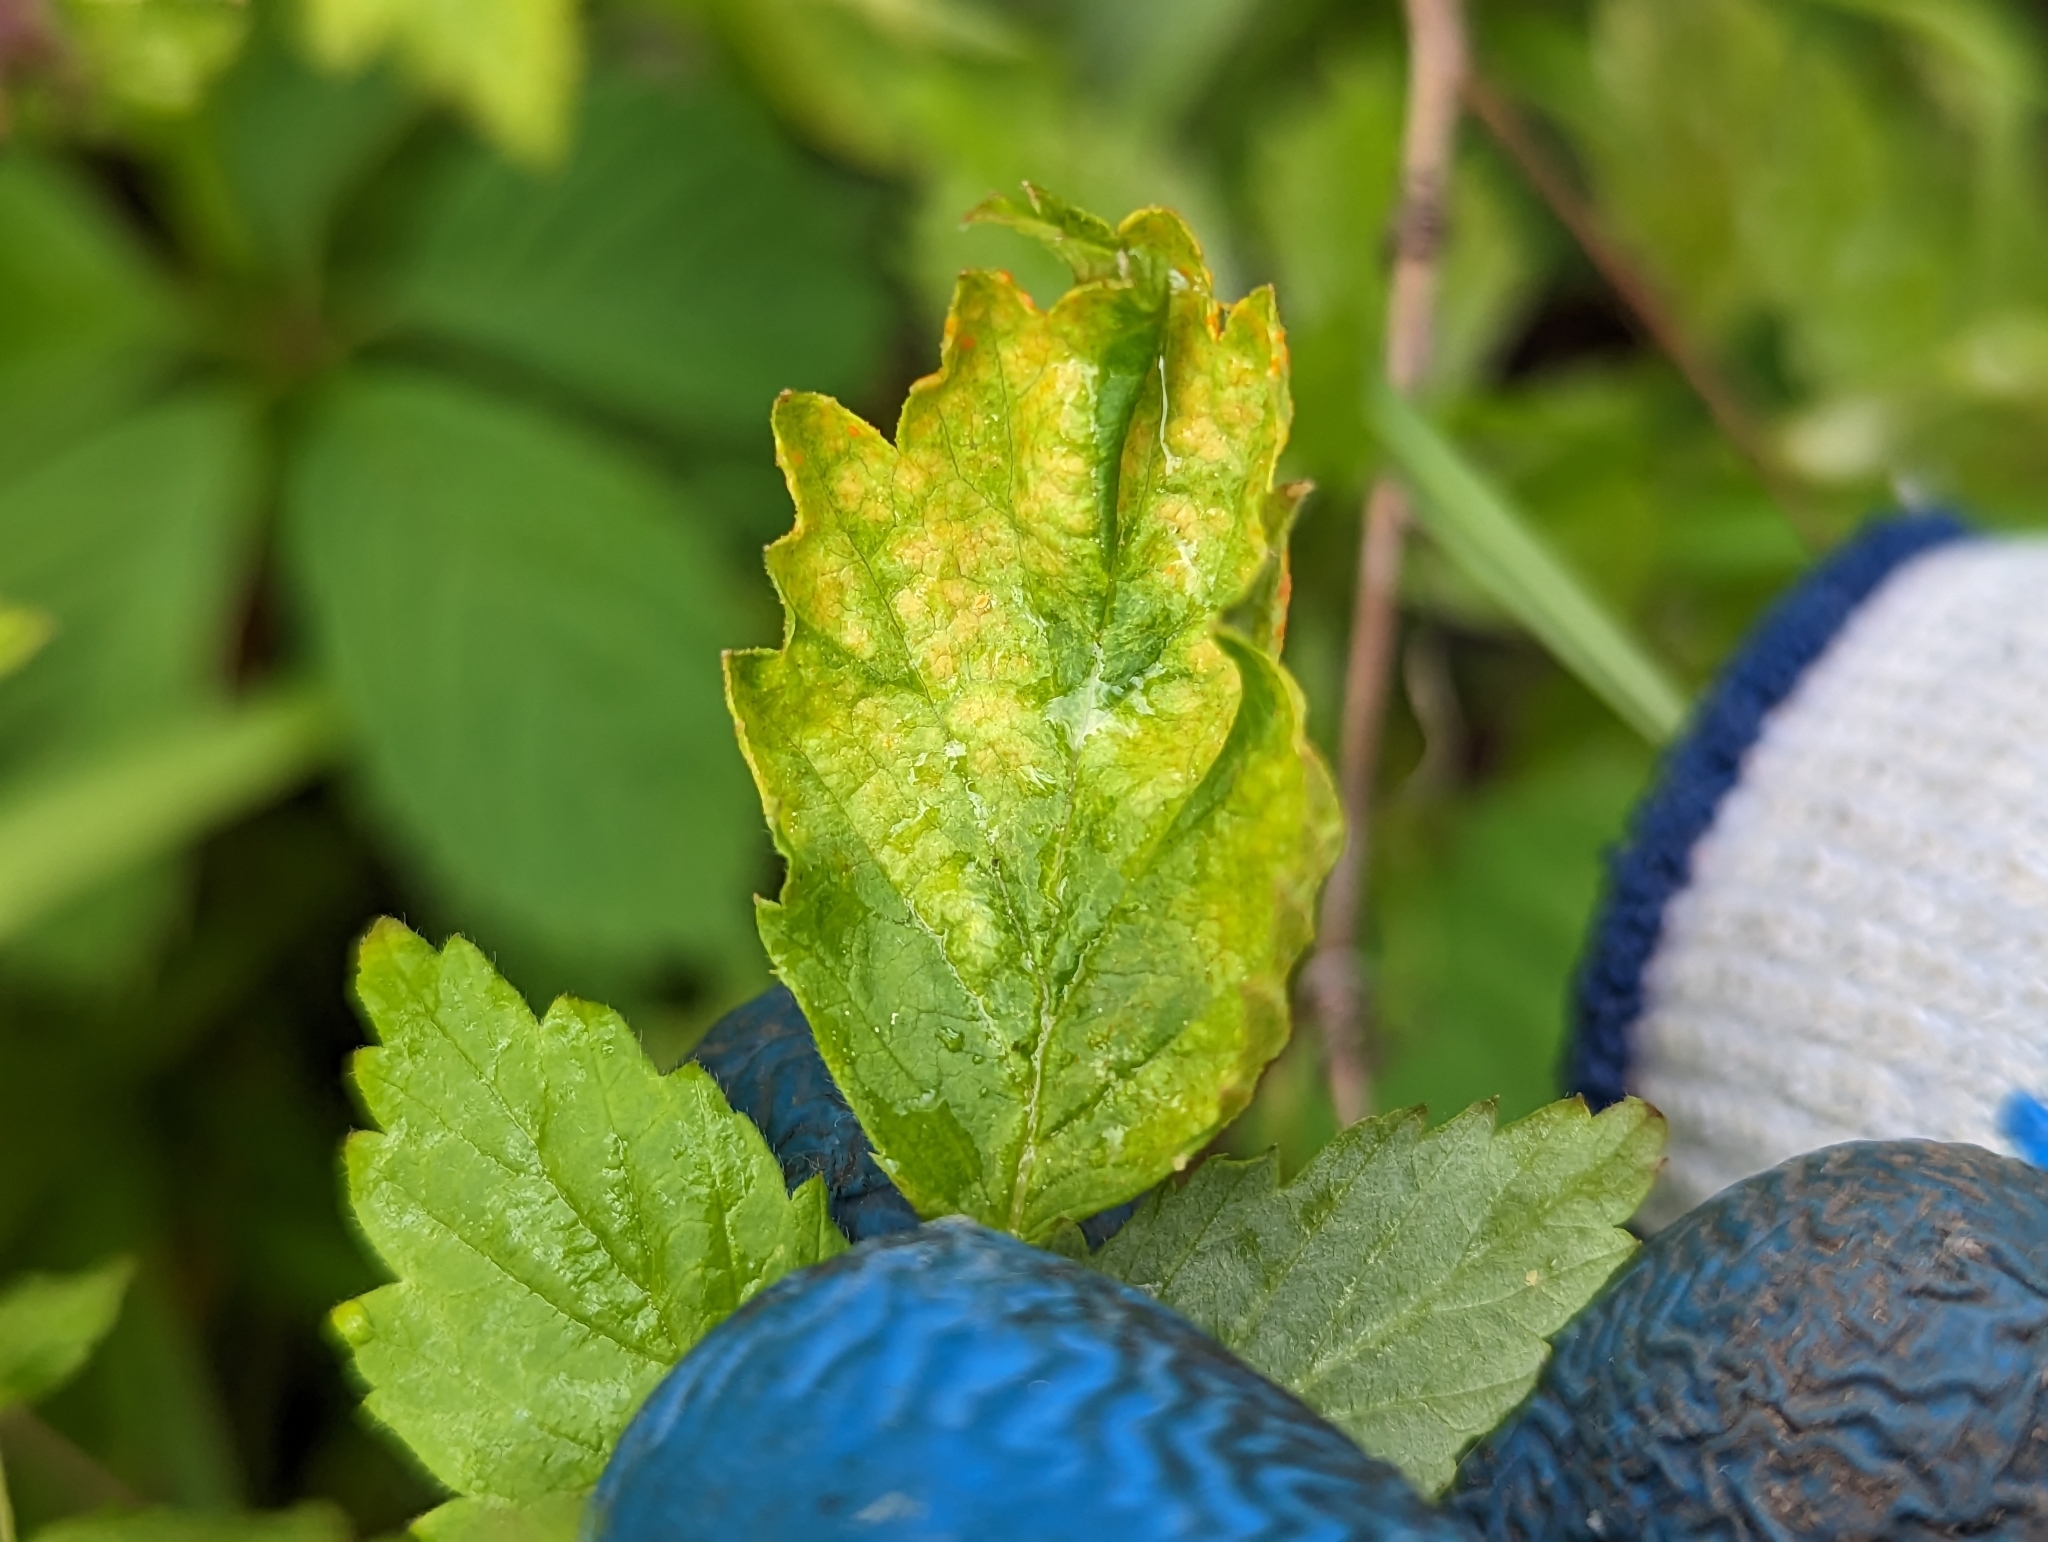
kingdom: Fungi
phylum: Basidiomycota
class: Pucciniomycetes
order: Pucciniales
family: Phragmidiaceae
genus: Arthuriomyces
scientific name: Arthuriomyces peckianus
